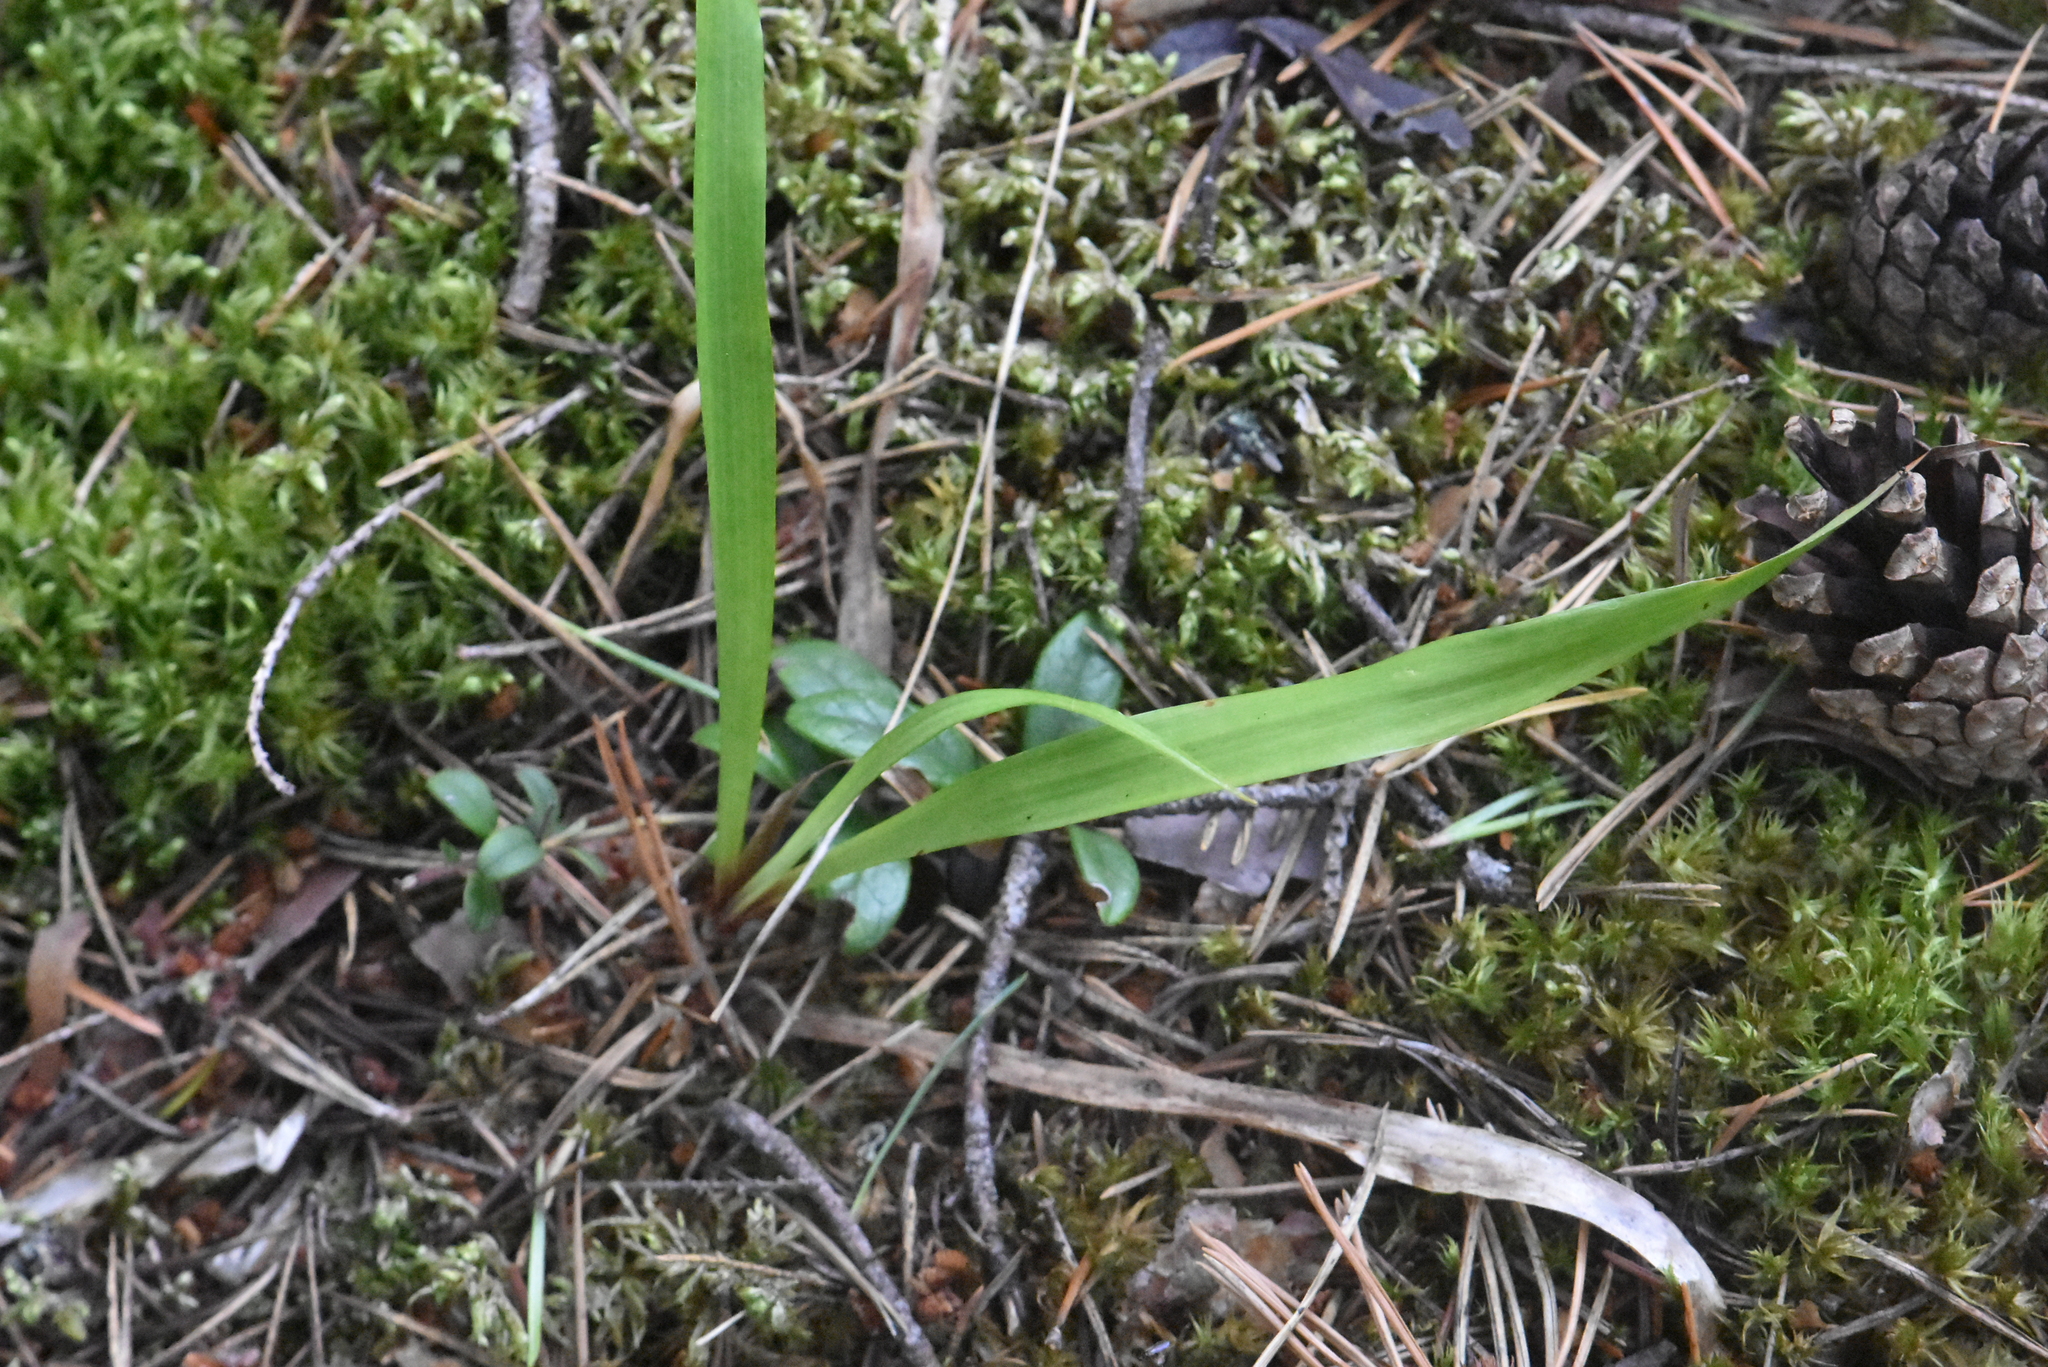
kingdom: Plantae
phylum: Tracheophyta
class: Liliopsida
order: Poales
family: Juncaceae
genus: Luzula
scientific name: Luzula pilosa
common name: Hairy wood-rush
